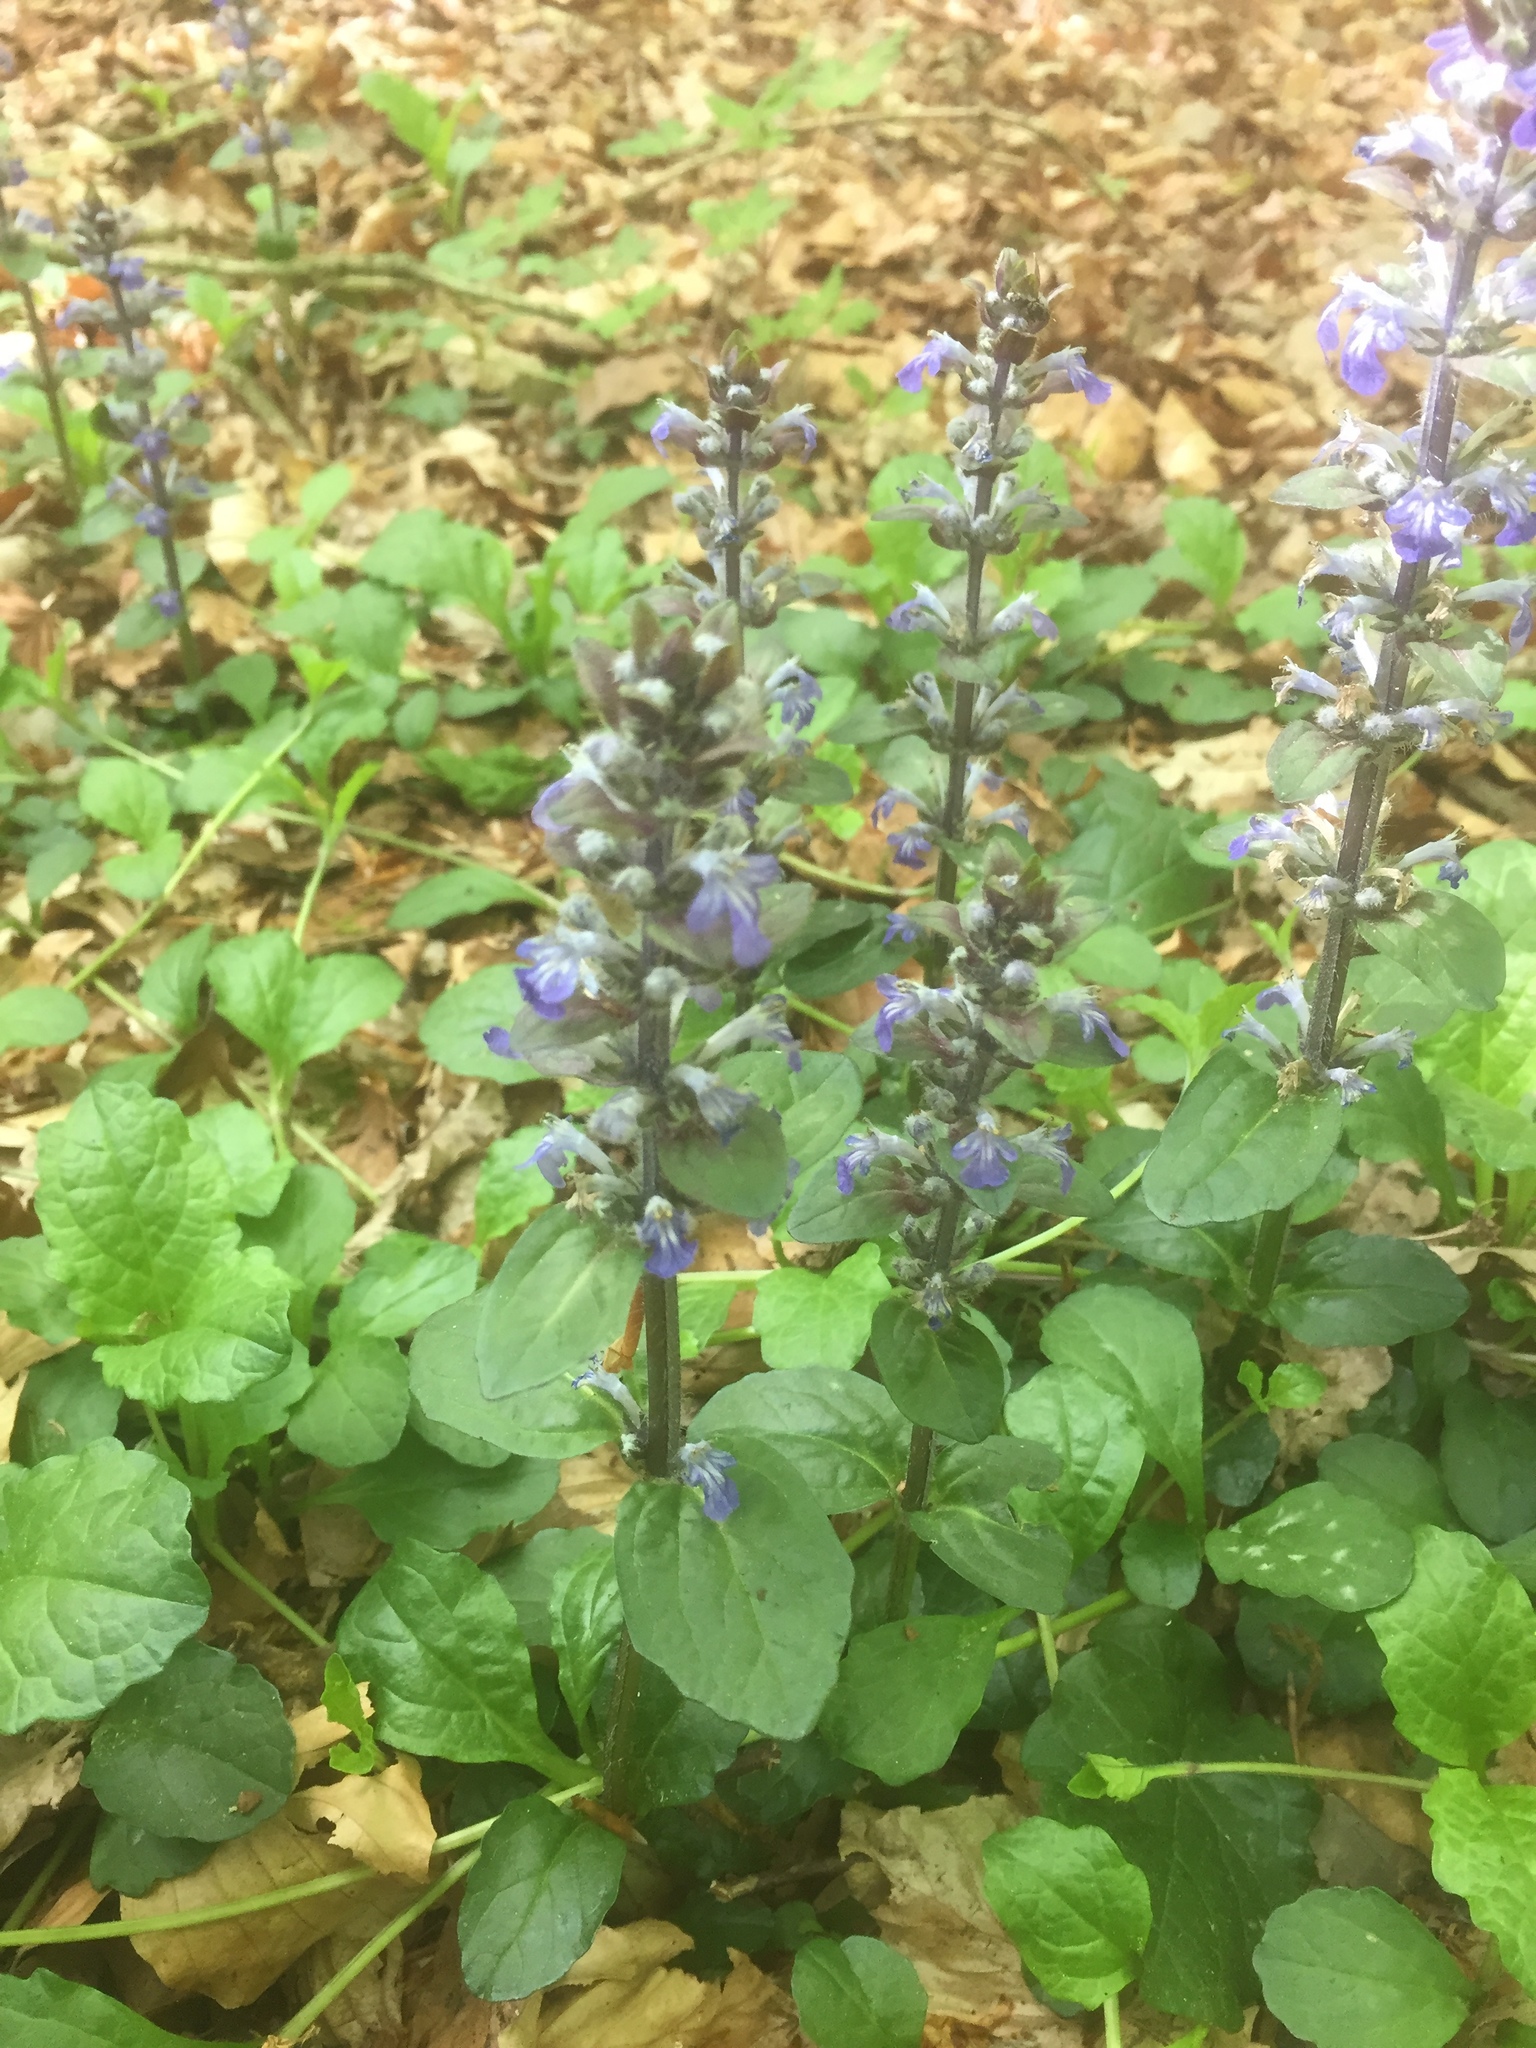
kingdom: Plantae
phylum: Tracheophyta
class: Magnoliopsida
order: Lamiales
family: Lamiaceae
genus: Ajuga
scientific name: Ajuga reptans
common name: Bugle
